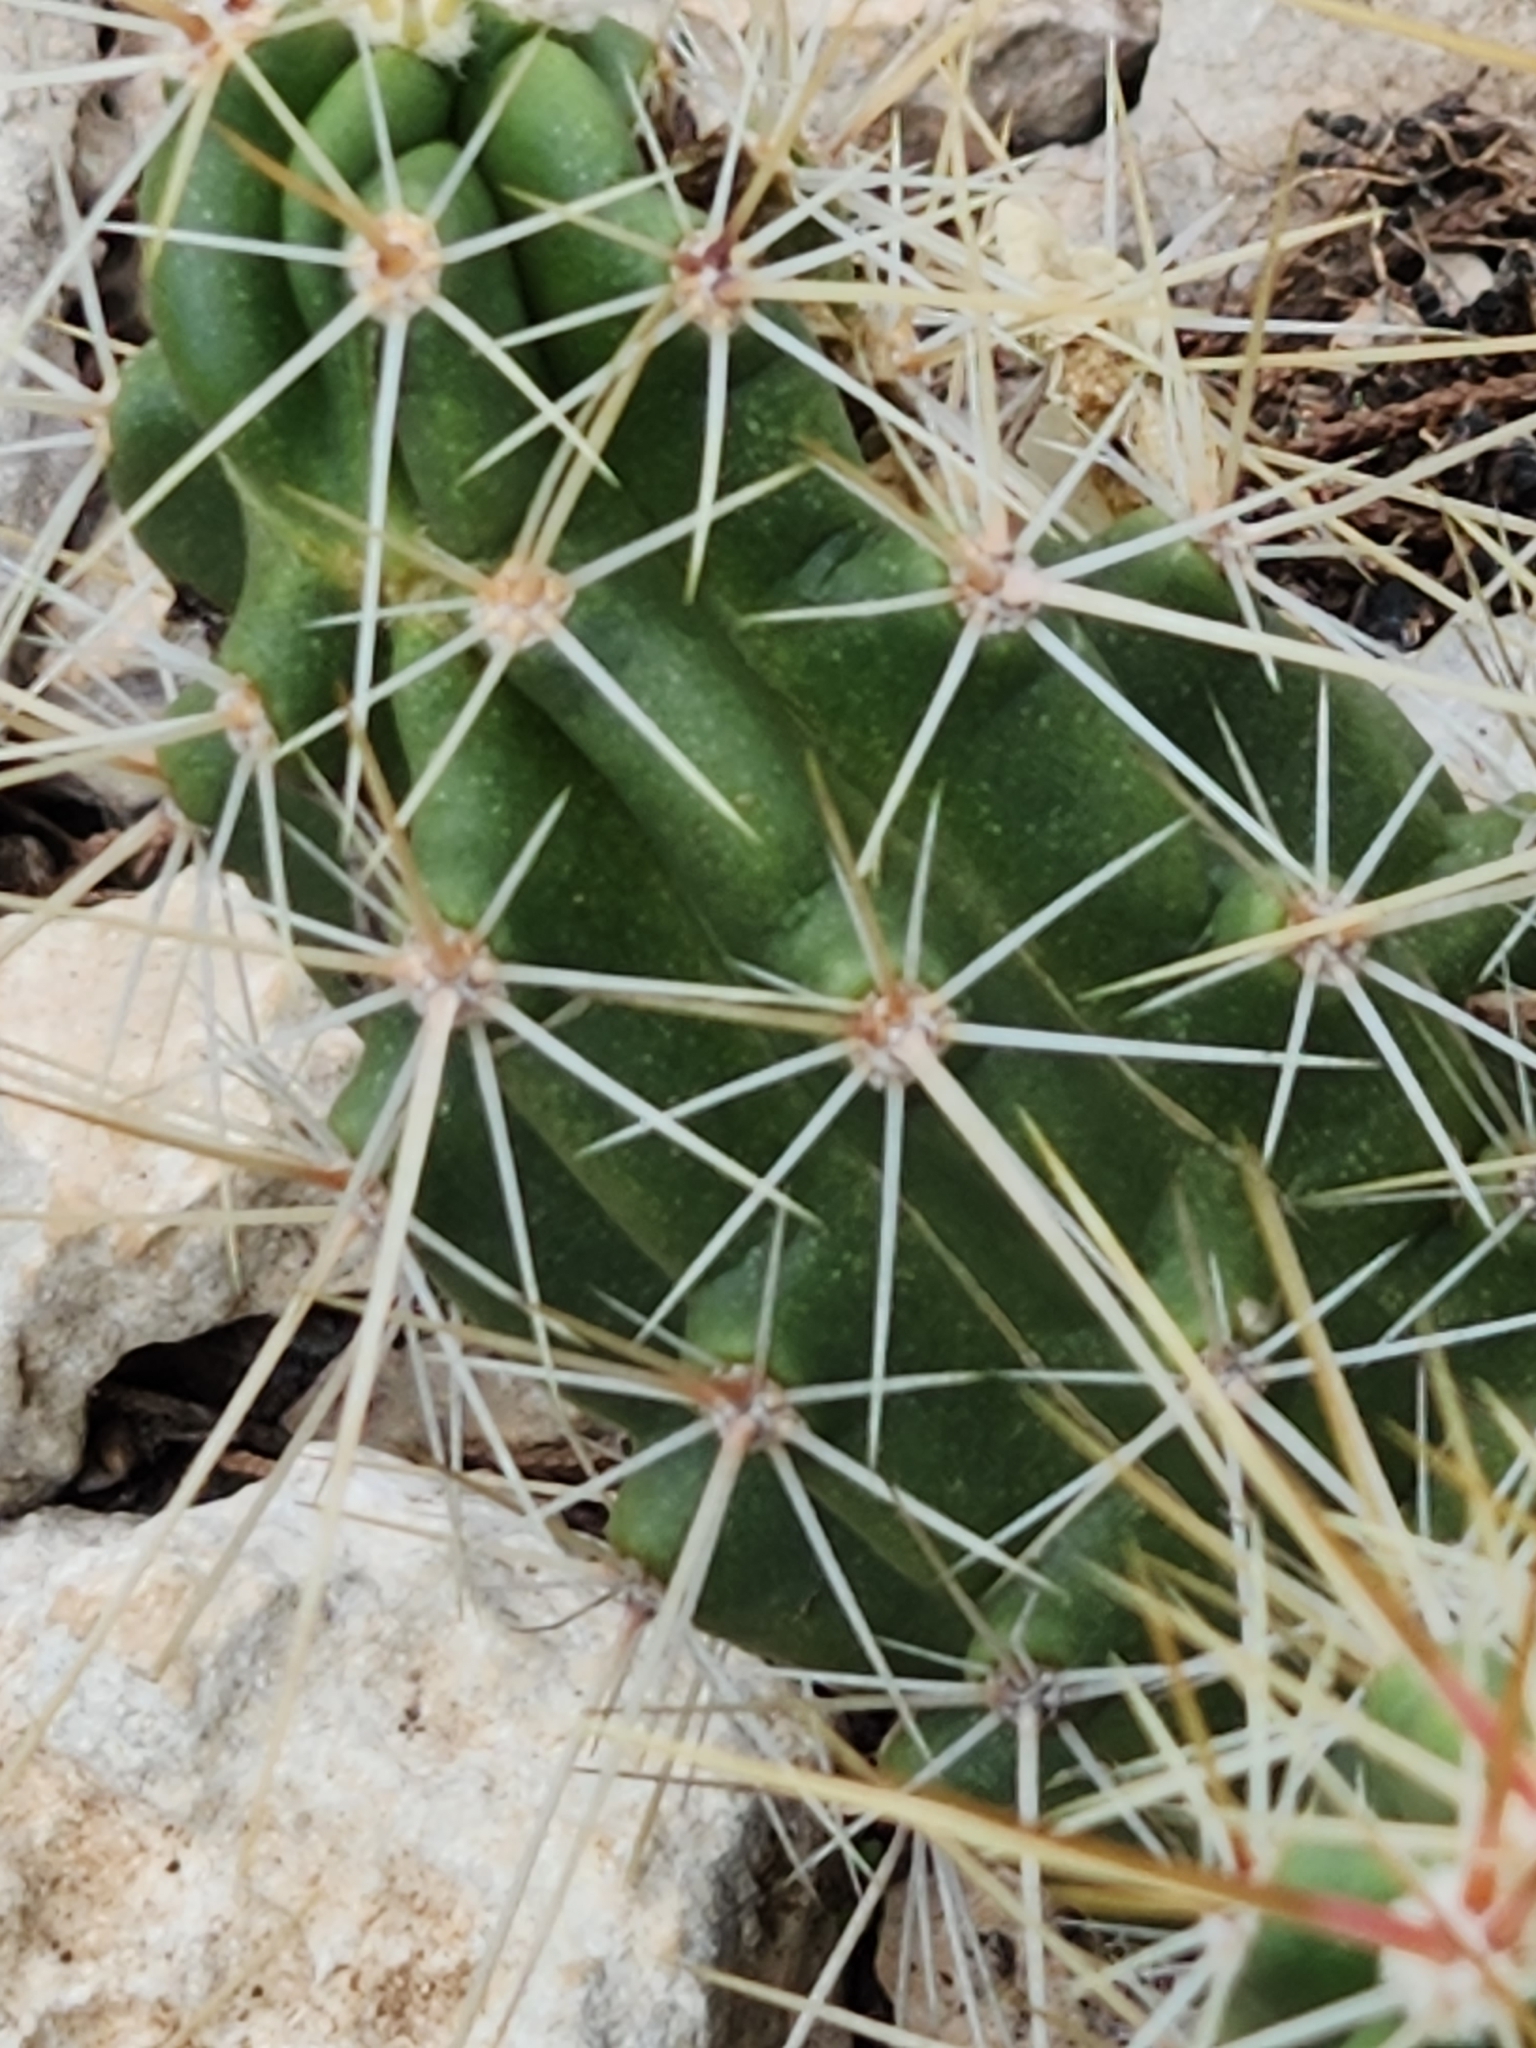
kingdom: Plantae
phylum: Tracheophyta
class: Magnoliopsida
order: Caryophyllales
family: Cactaceae
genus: Echinocereus
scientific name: Echinocereus enneacanthus
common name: Pitaya
